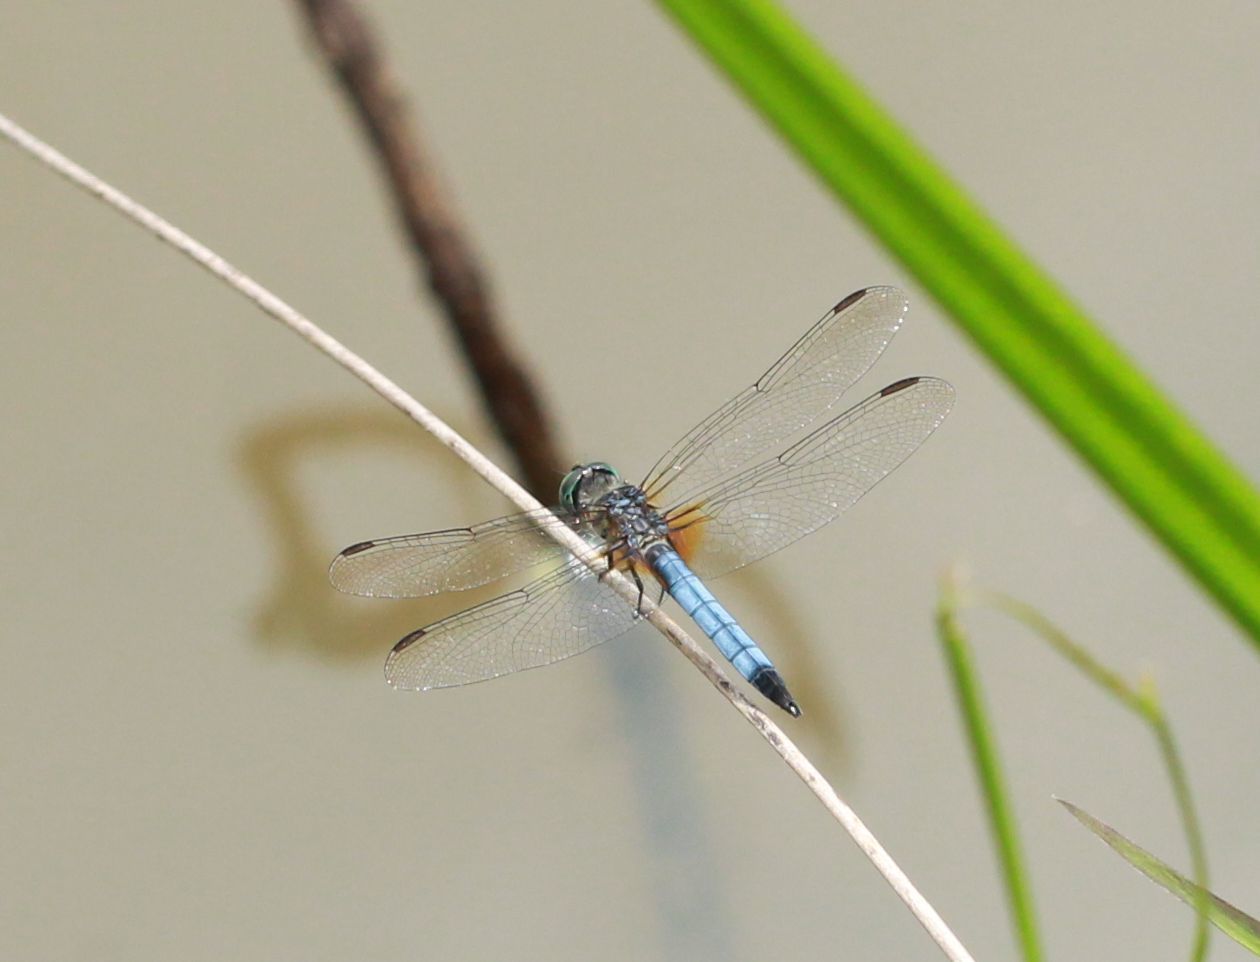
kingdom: Animalia
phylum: Arthropoda
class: Insecta
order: Odonata
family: Libellulidae
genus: Pachydiplax
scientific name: Pachydiplax longipennis
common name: Blue dasher
